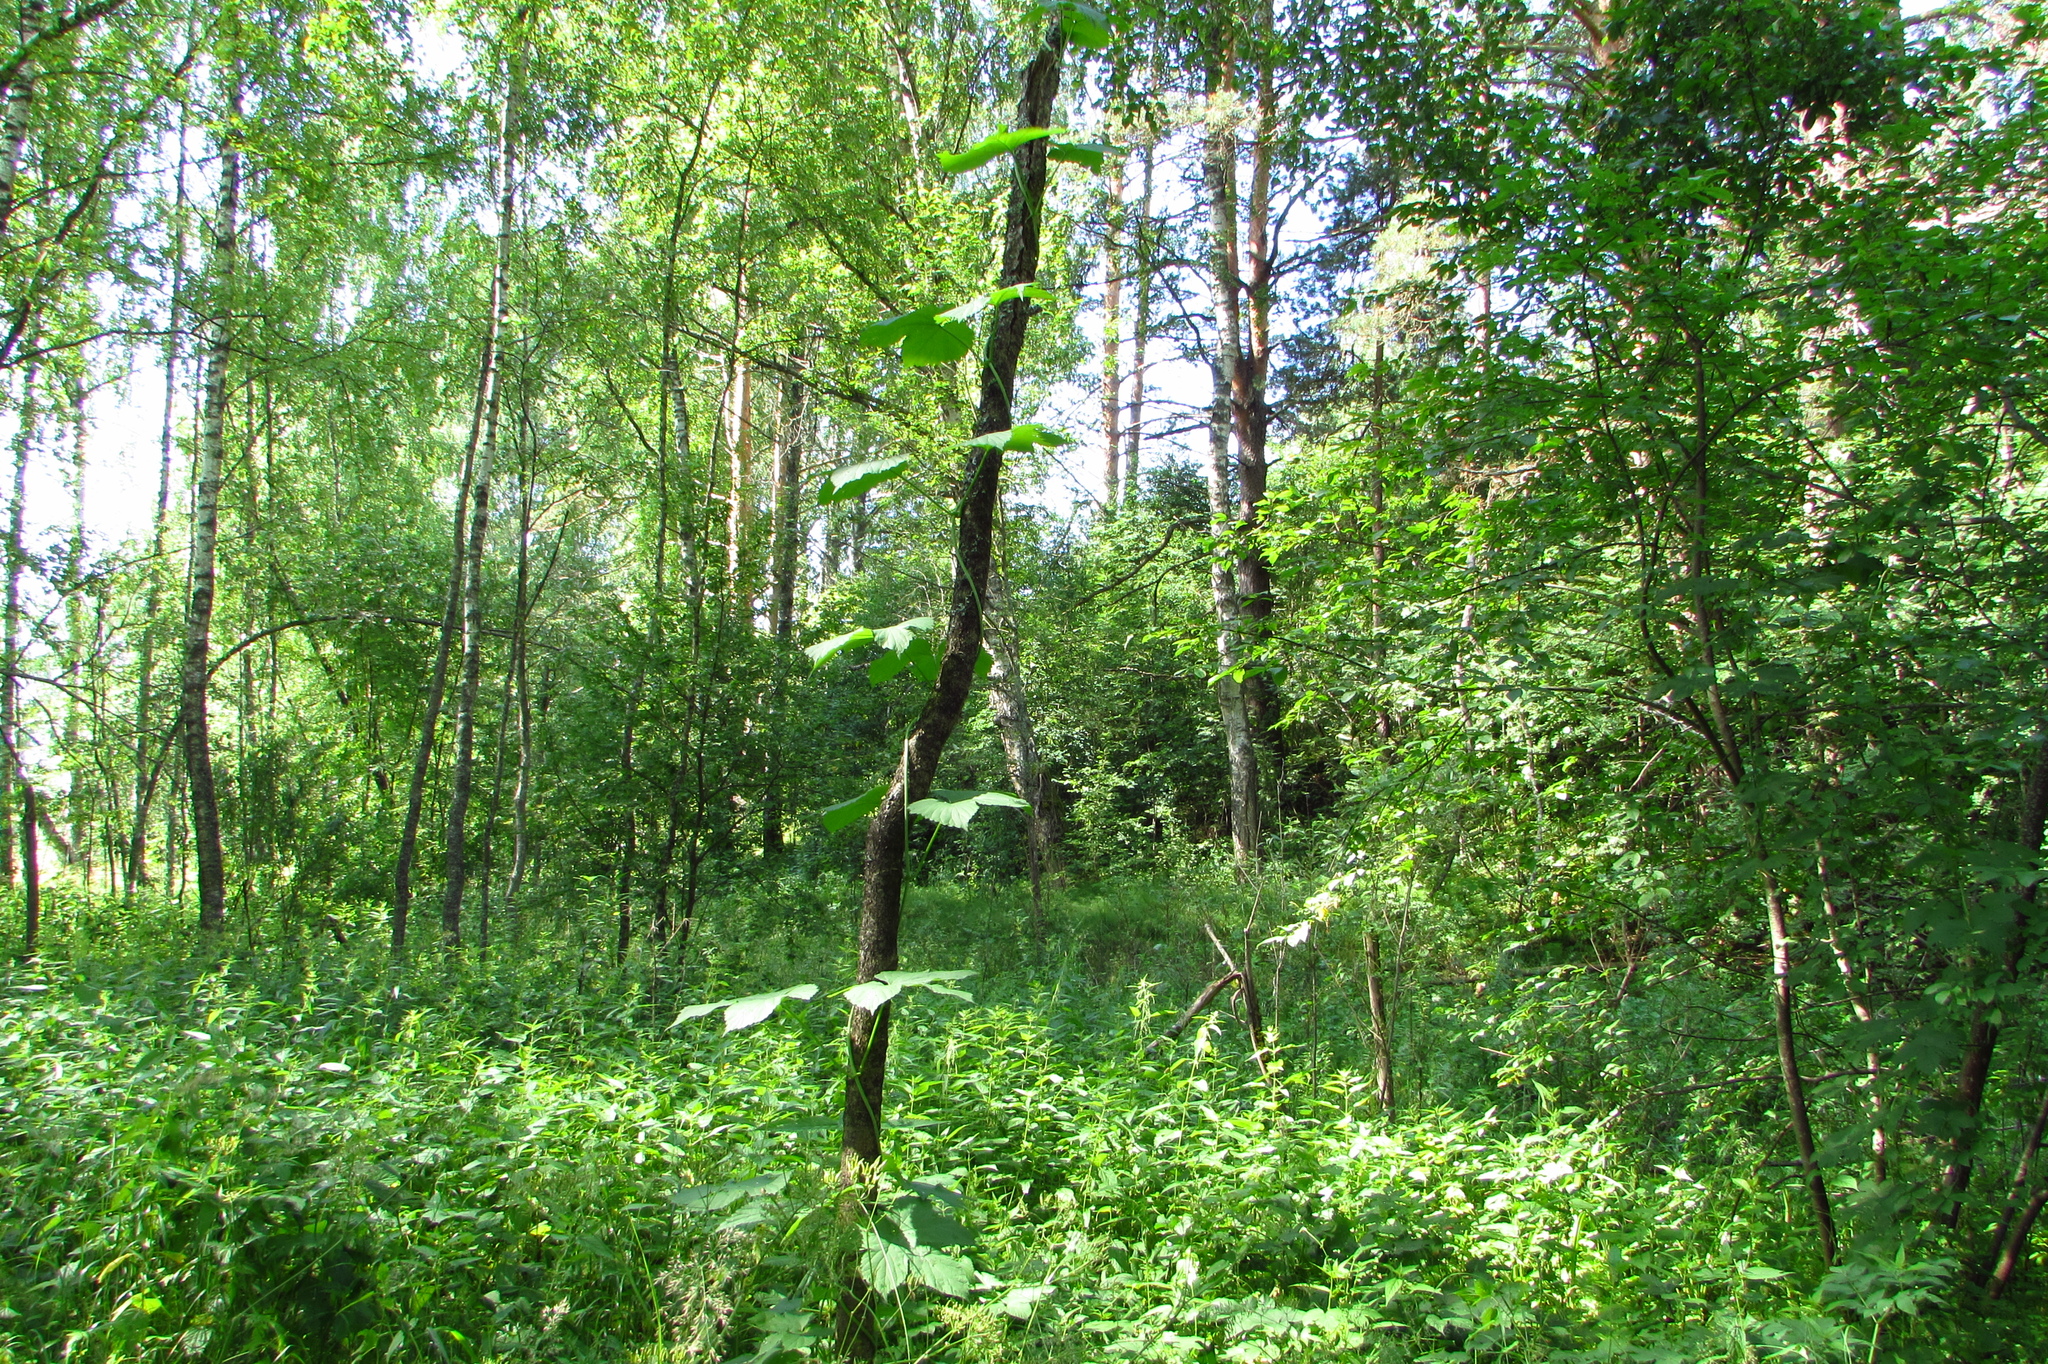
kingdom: Plantae
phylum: Tracheophyta
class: Magnoliopsida
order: Rosales
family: Cannabaceae
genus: Humulus
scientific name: Humulus lupulus
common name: Hop
